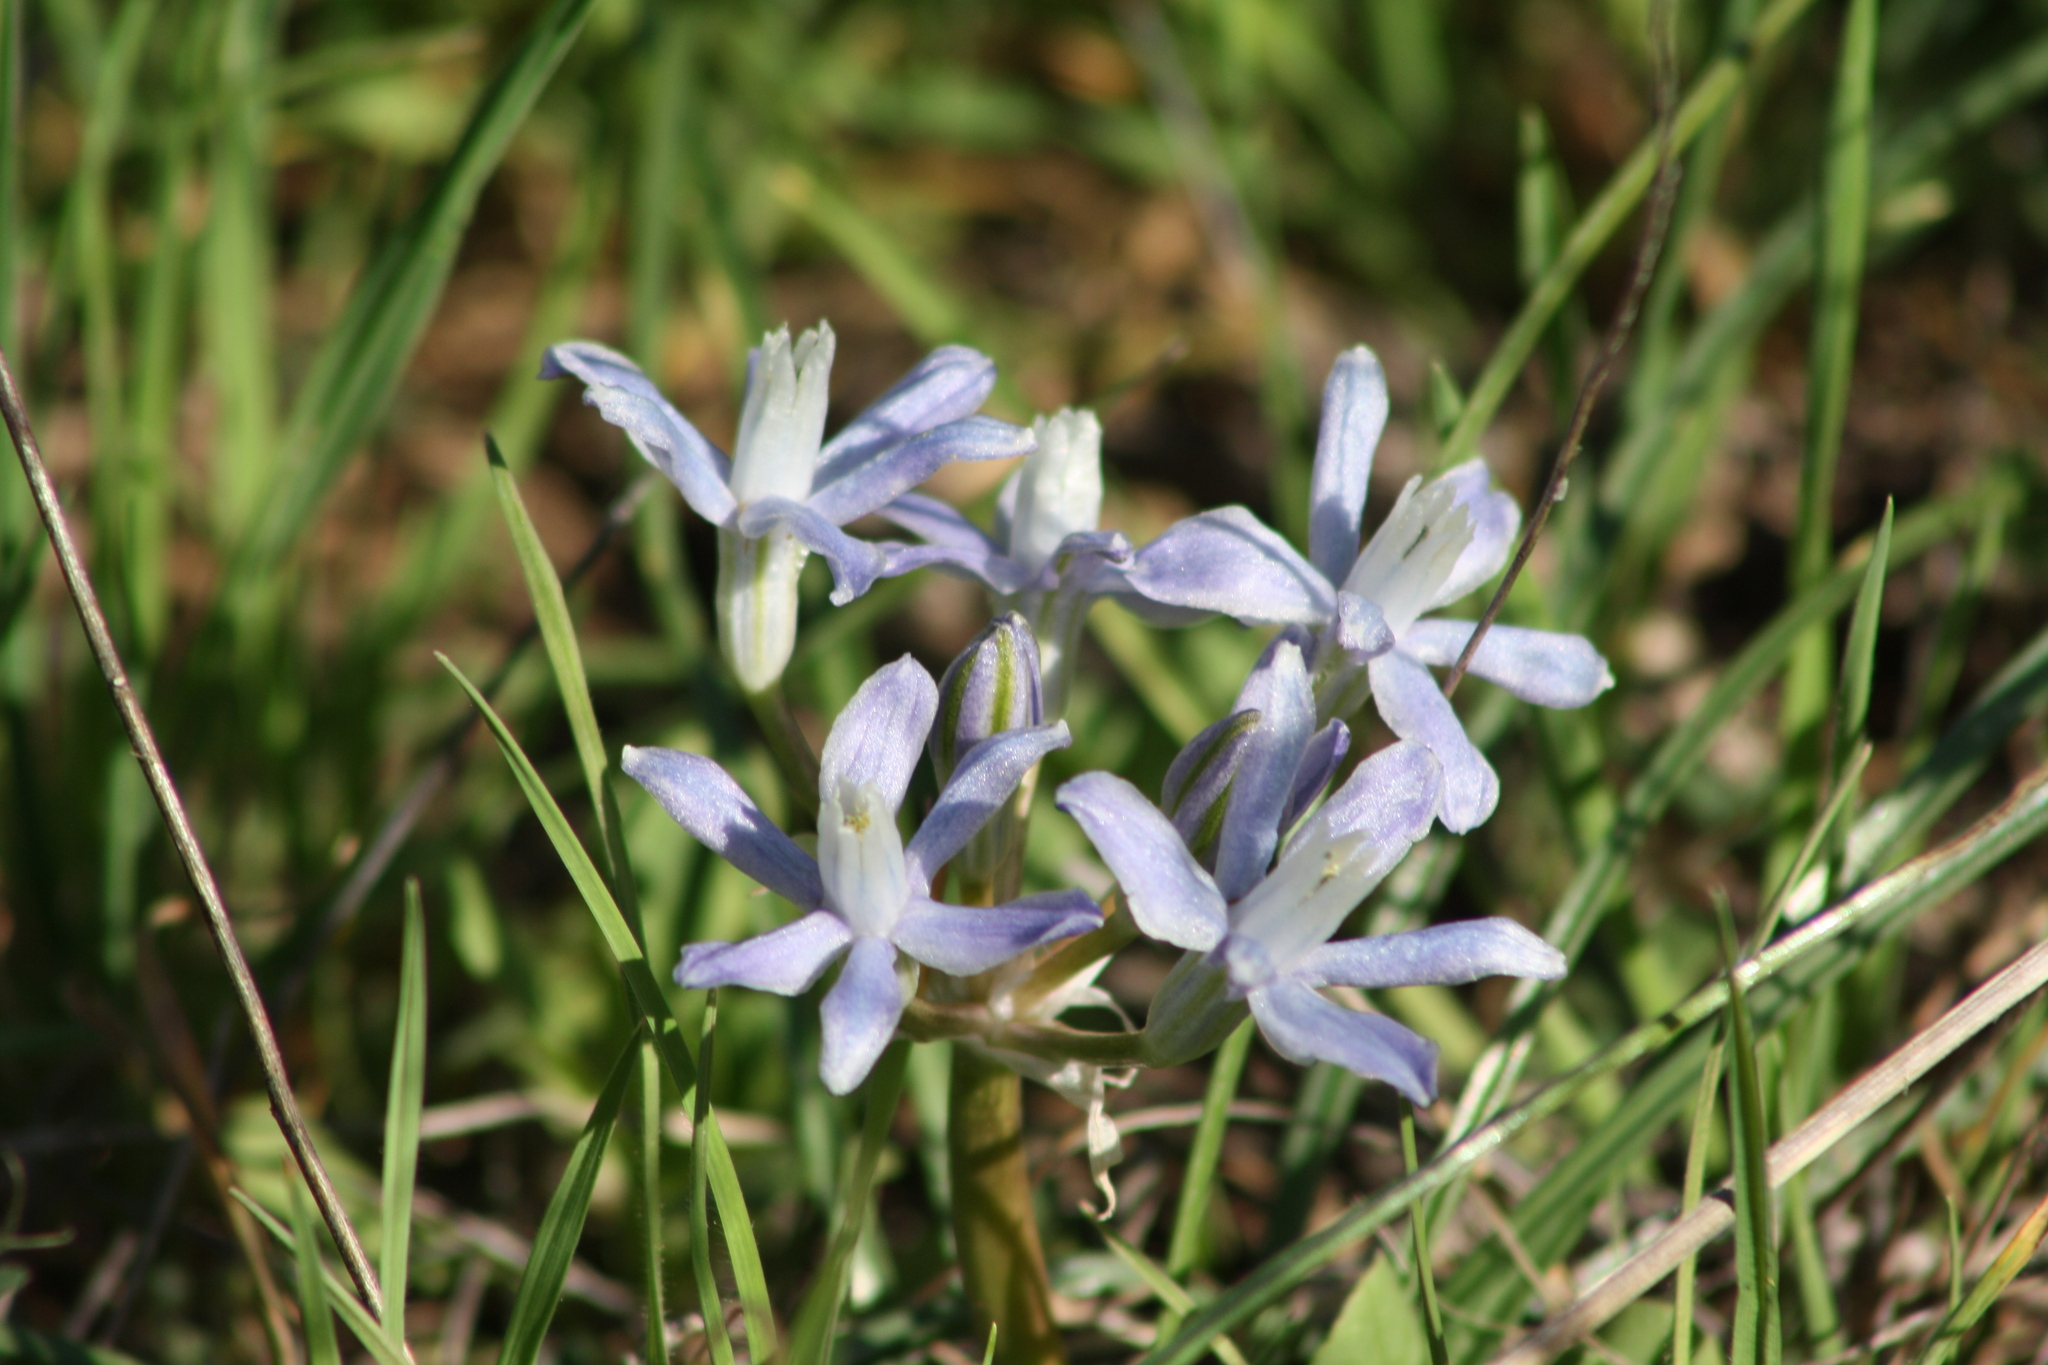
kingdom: Plantae
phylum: Tracheophyta
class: Liliopsida
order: Asparagales
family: Asparagaceae
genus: Androstephium
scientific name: Androstephium coeruleum
